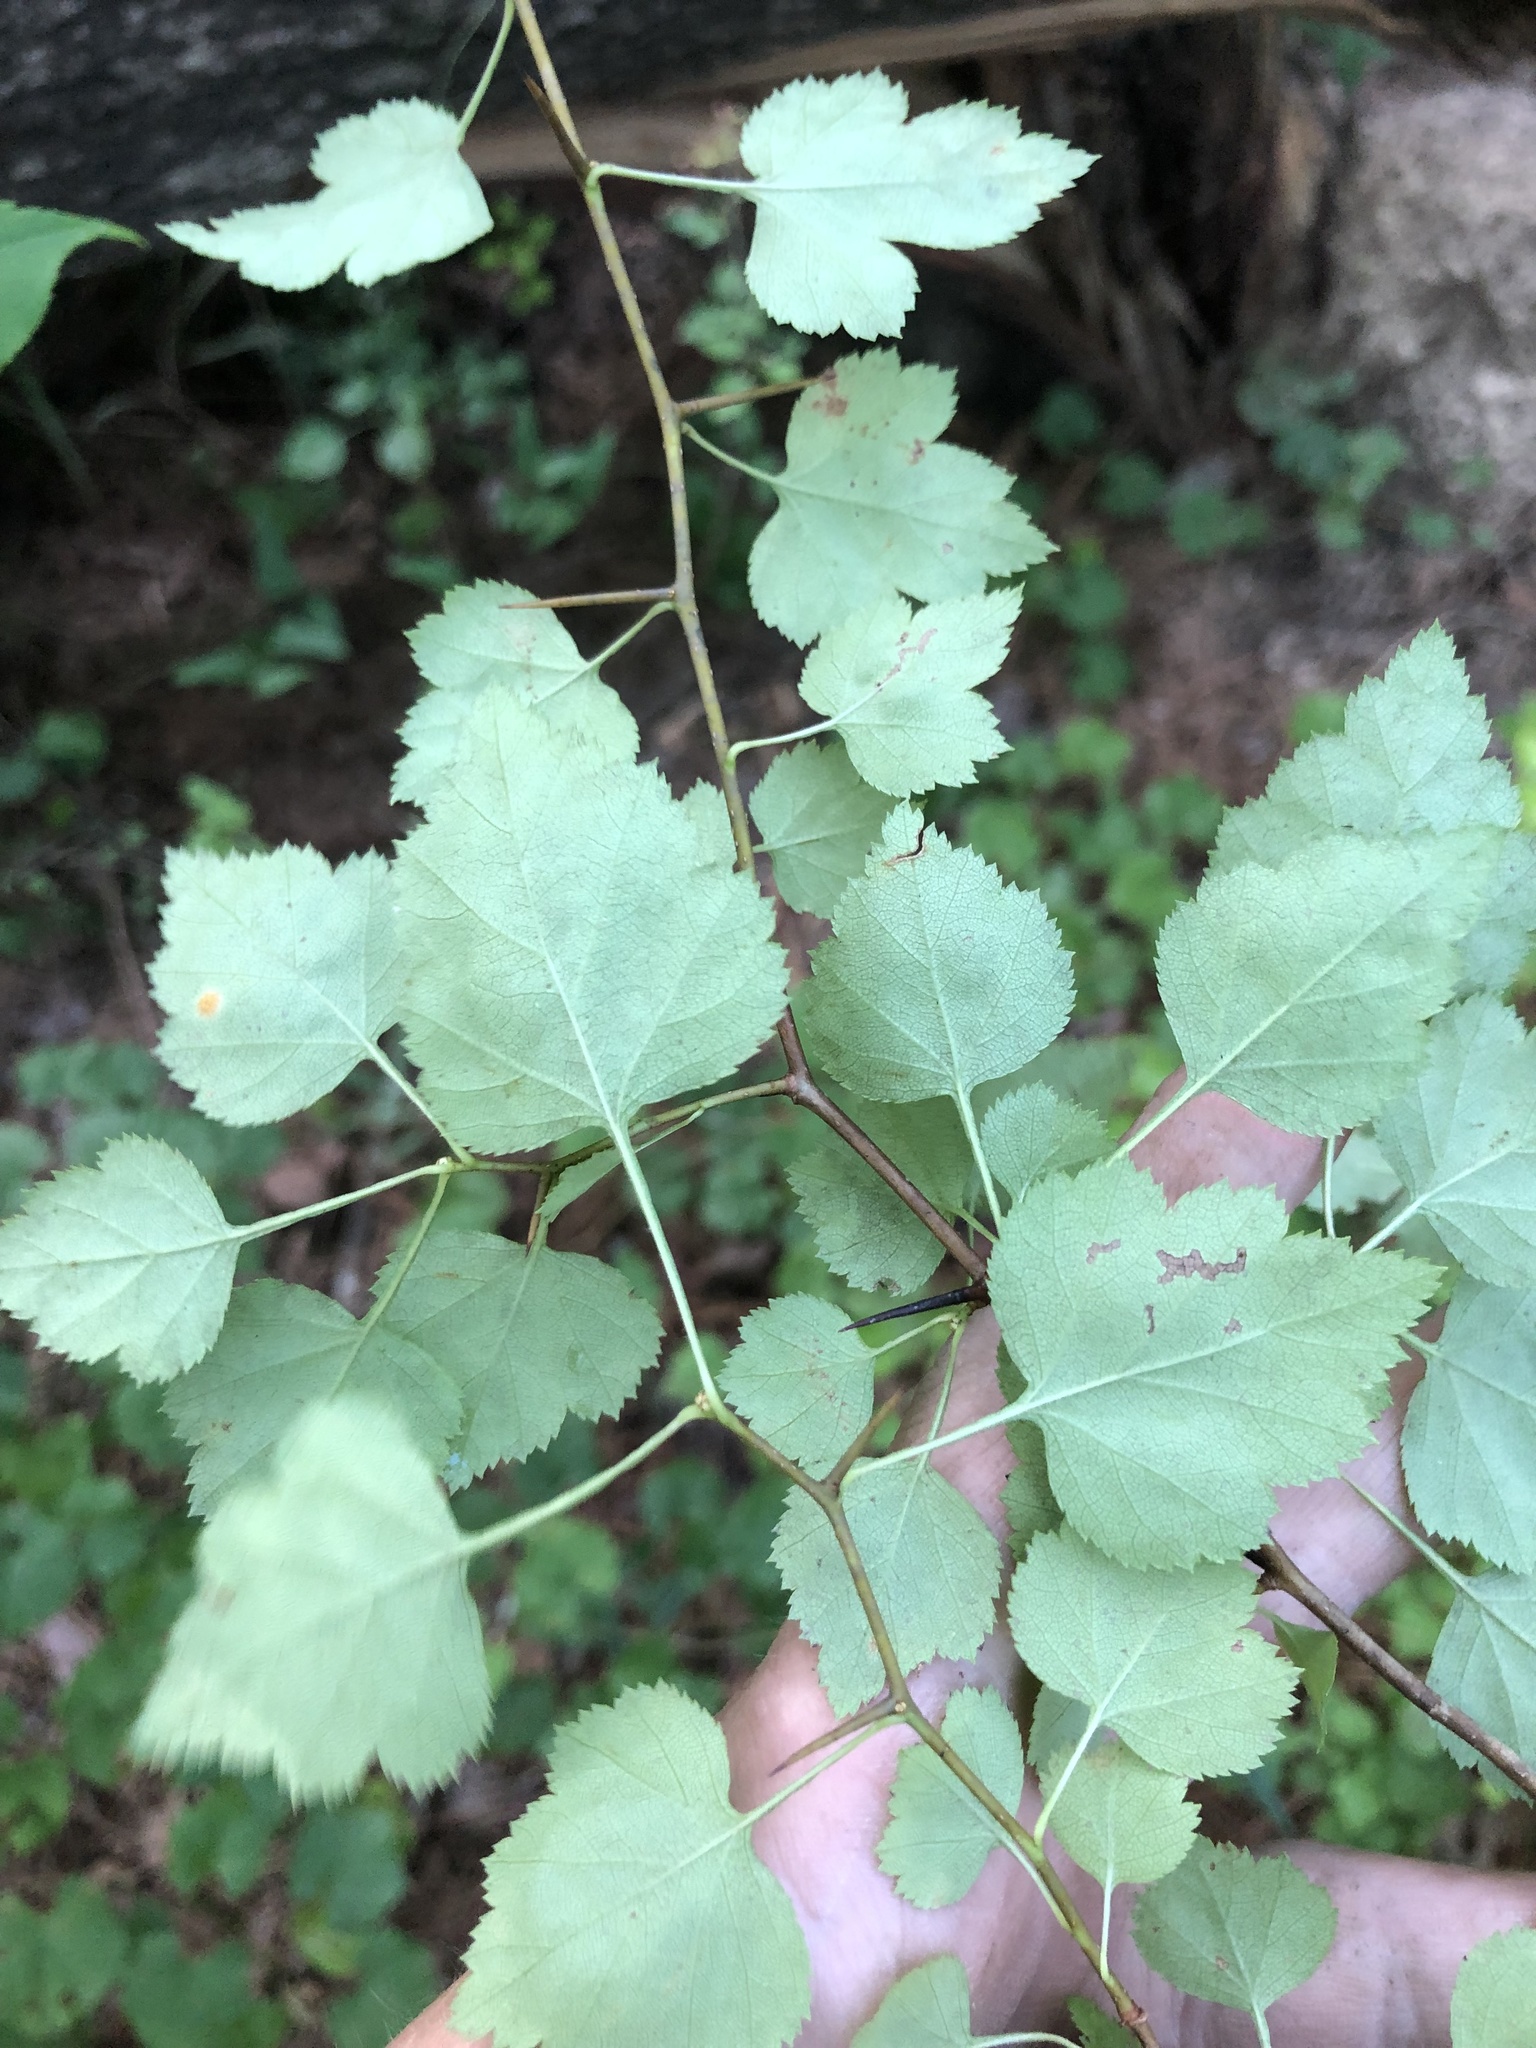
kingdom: Plantae
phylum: Tracheophyta
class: Magnoliopsida
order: Rosales
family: Rosaceae
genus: Crataegus
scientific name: Crataegus iracunda
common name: Stolon-bearing hawthorn
